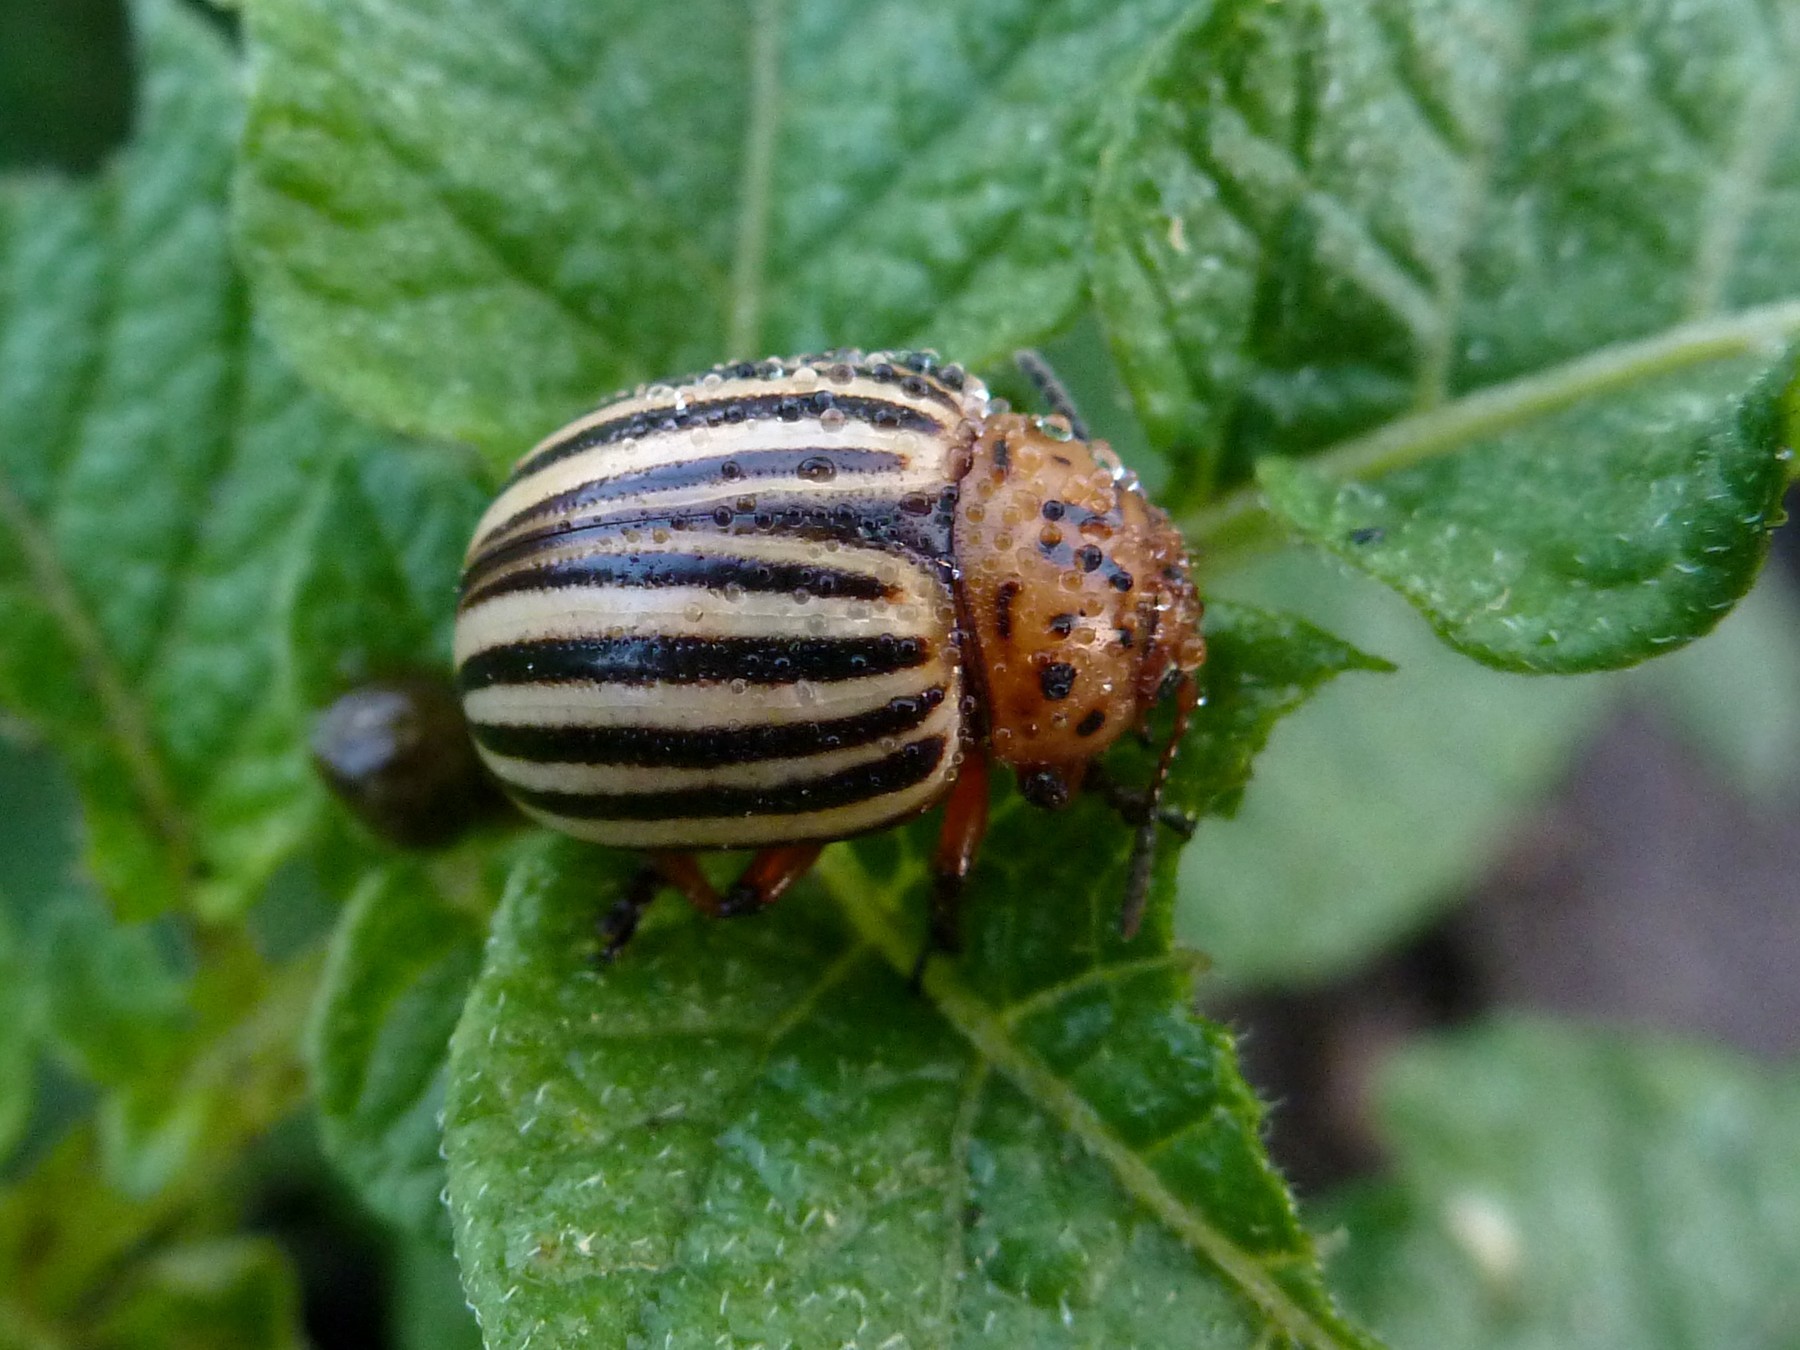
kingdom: Animalia
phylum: Arthropoda
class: Insecta
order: Coleoptera
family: Chrysomelidae
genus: Leptinotarsa
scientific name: Leptinotarsa decemlineata
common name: Colorado potato beetle
